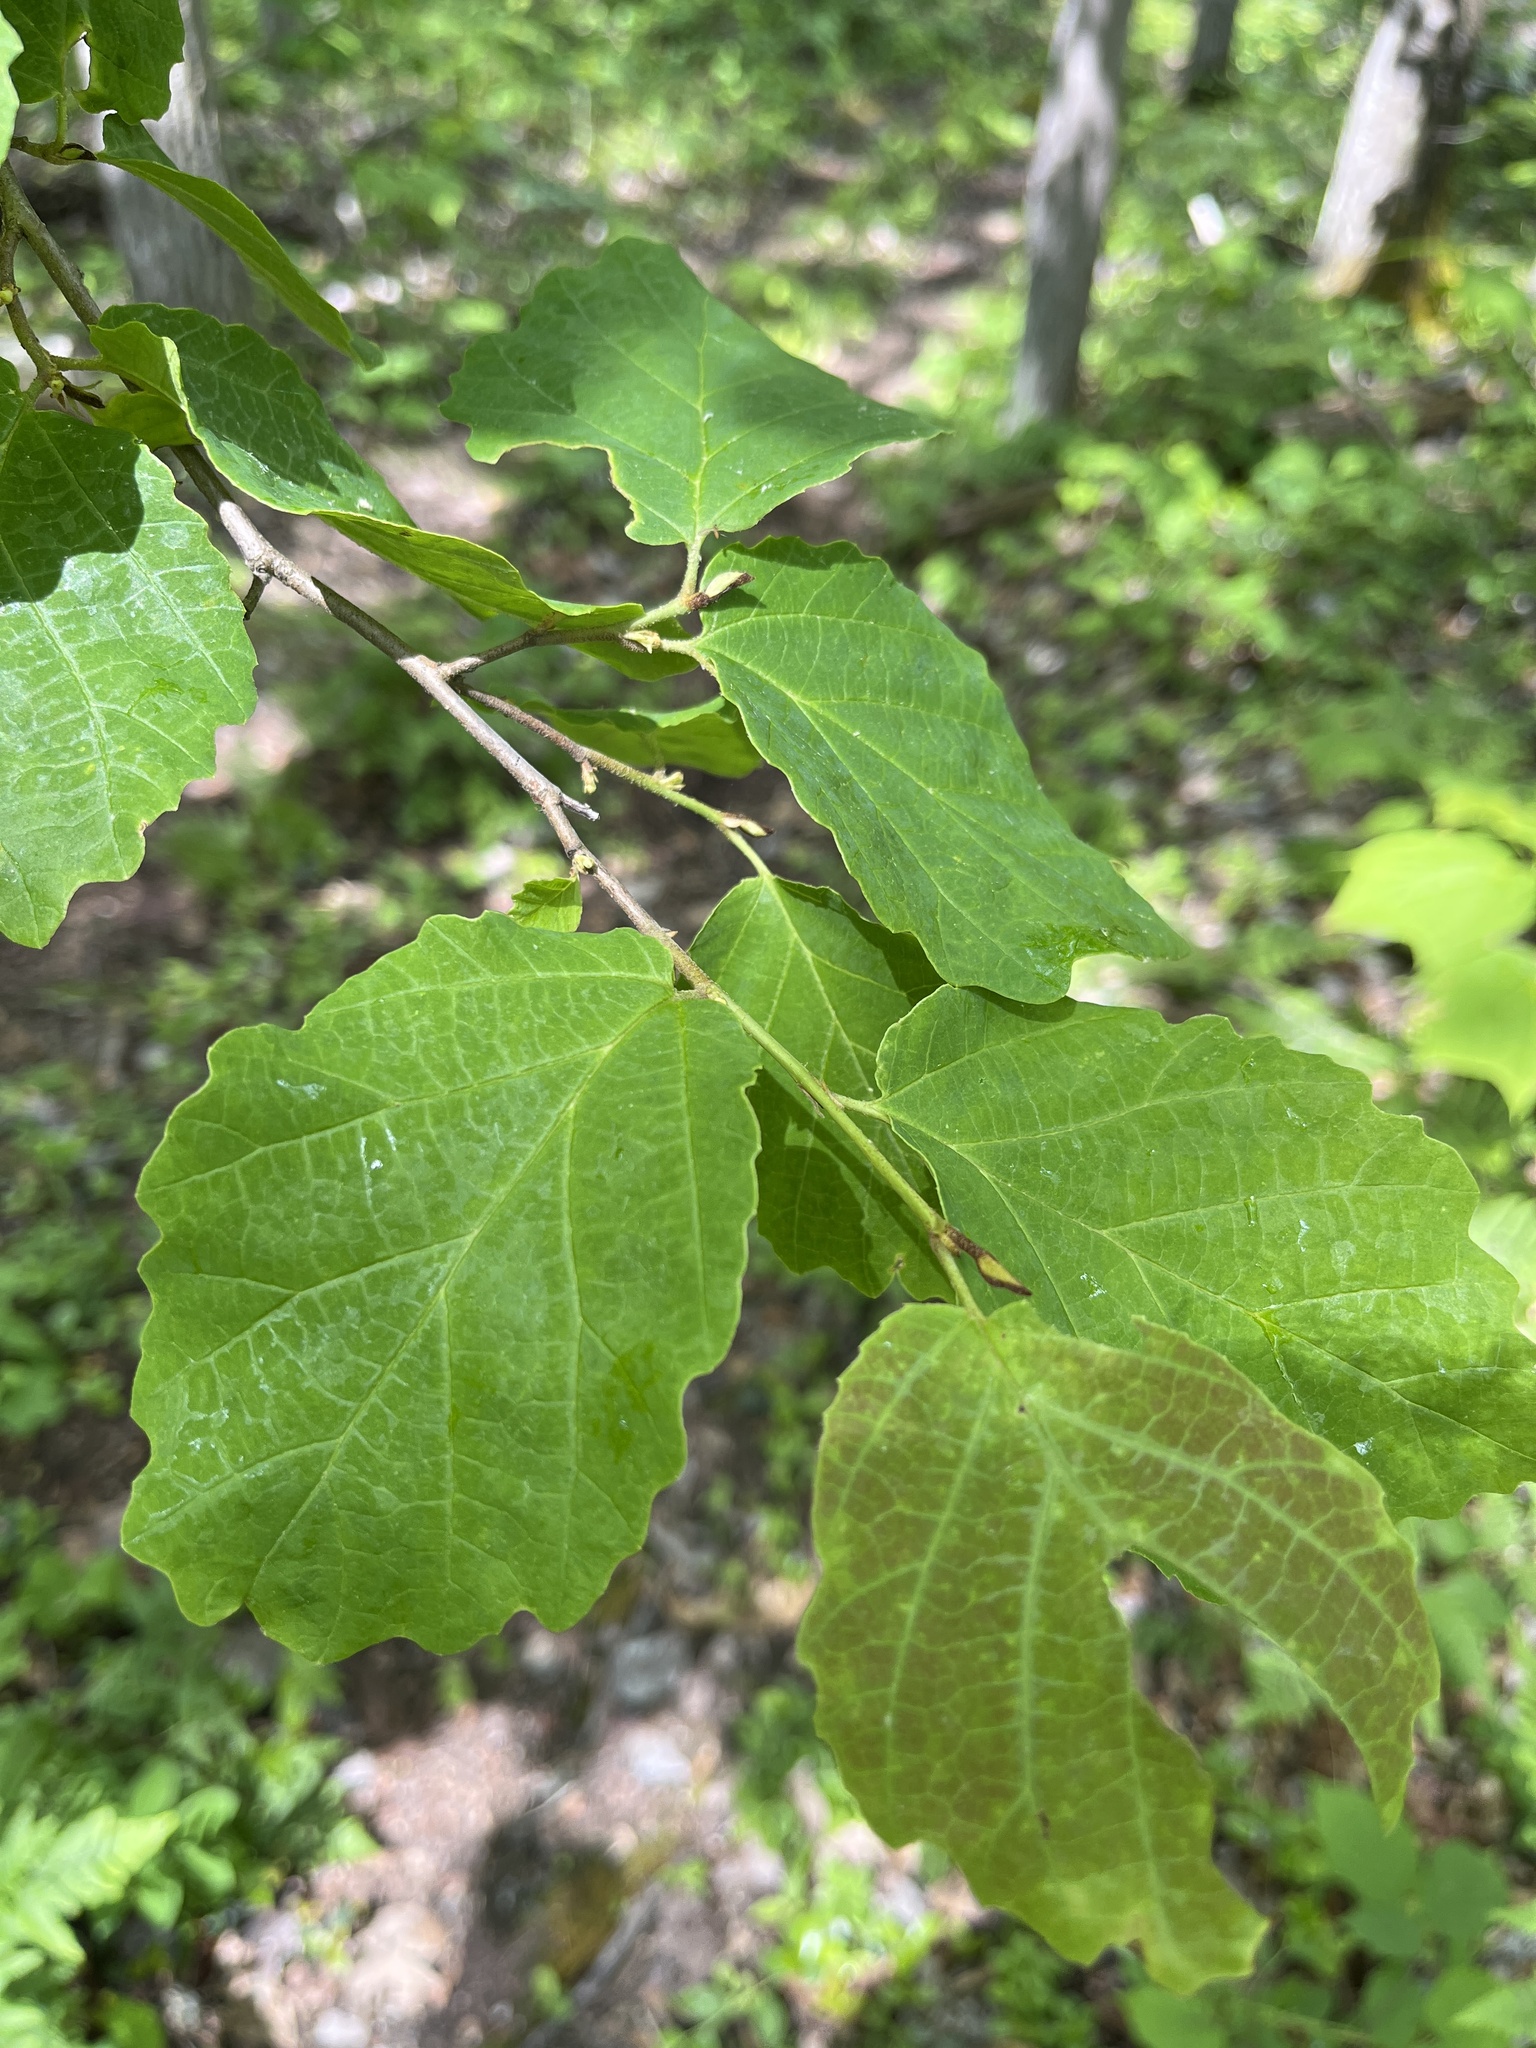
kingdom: Plantae
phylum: Tracheophyta
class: Magnoliopsida
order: Saxifragales
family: Hamamelidaceae
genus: Hamamelis
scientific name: Hamamelis virginiana
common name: Witch-hazel
